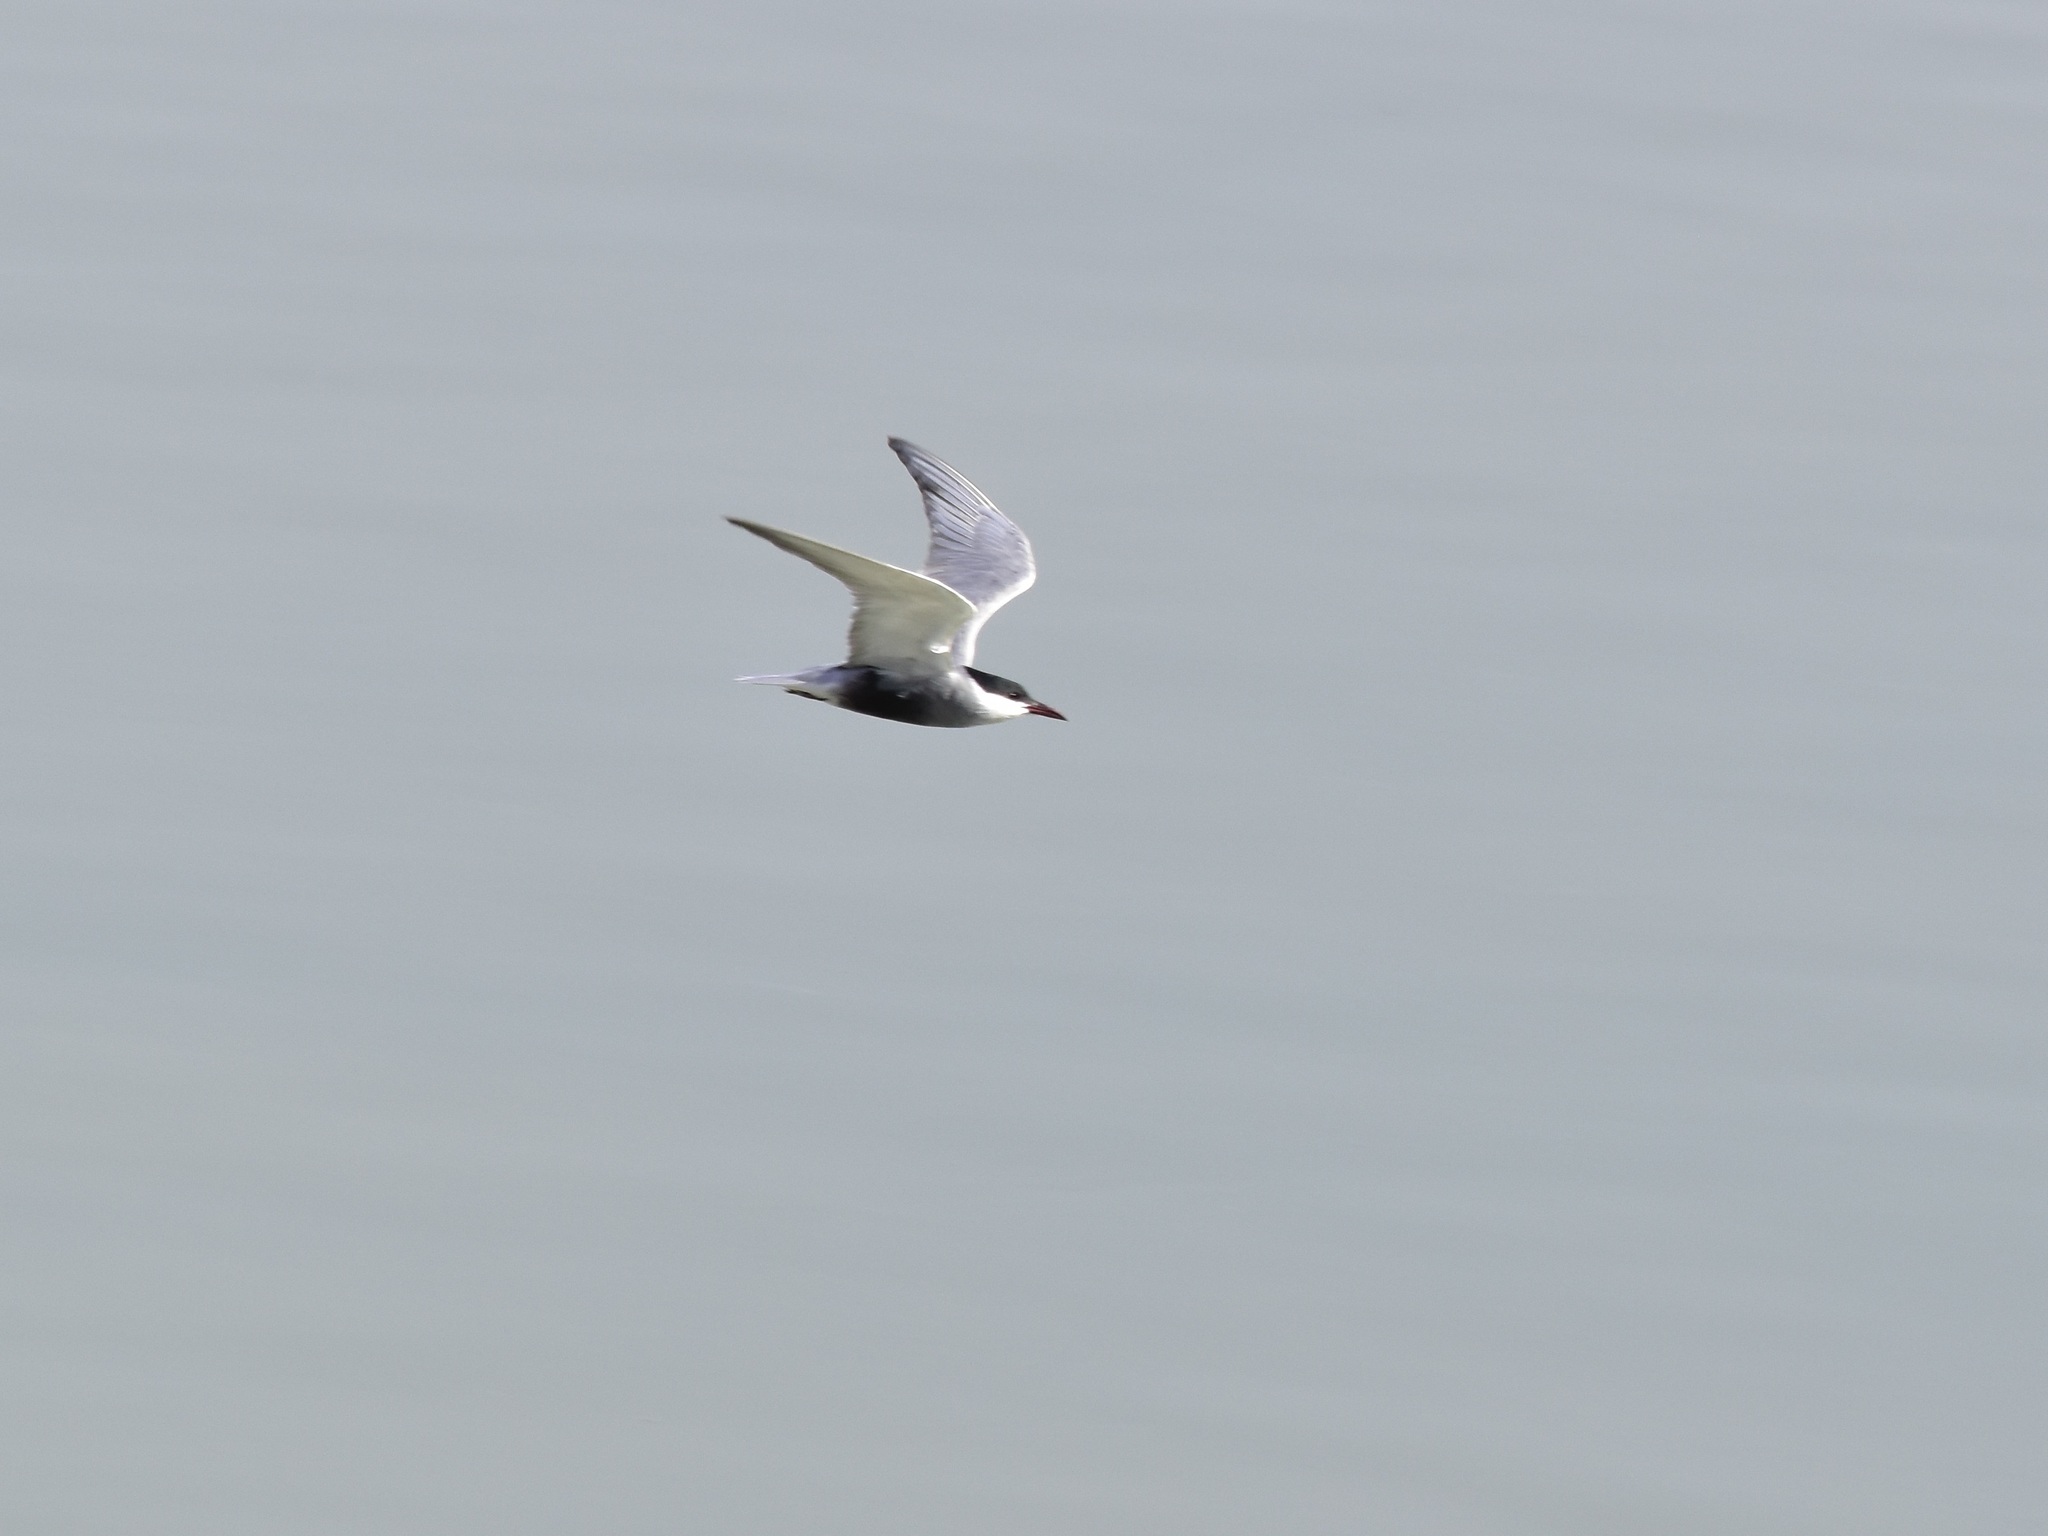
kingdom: Animalia
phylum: Chordata
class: Aves
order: Charadriiformes
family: Laridae
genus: Chlidonias
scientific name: Chlidonias hybrida
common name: Whiskered tern
